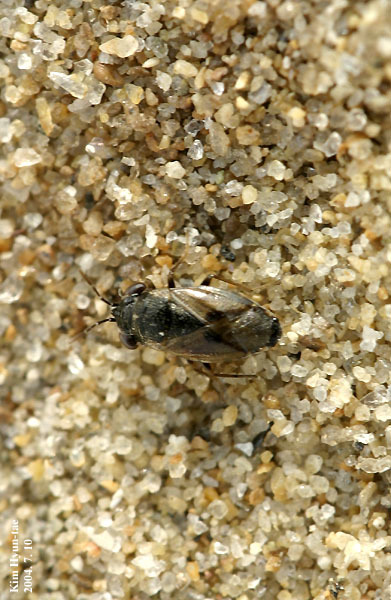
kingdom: Animalia
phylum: Arthropoda
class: Insecta
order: Hemiptera
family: Geocoridae
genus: Geocoris
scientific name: Geocoris pallidipennis
